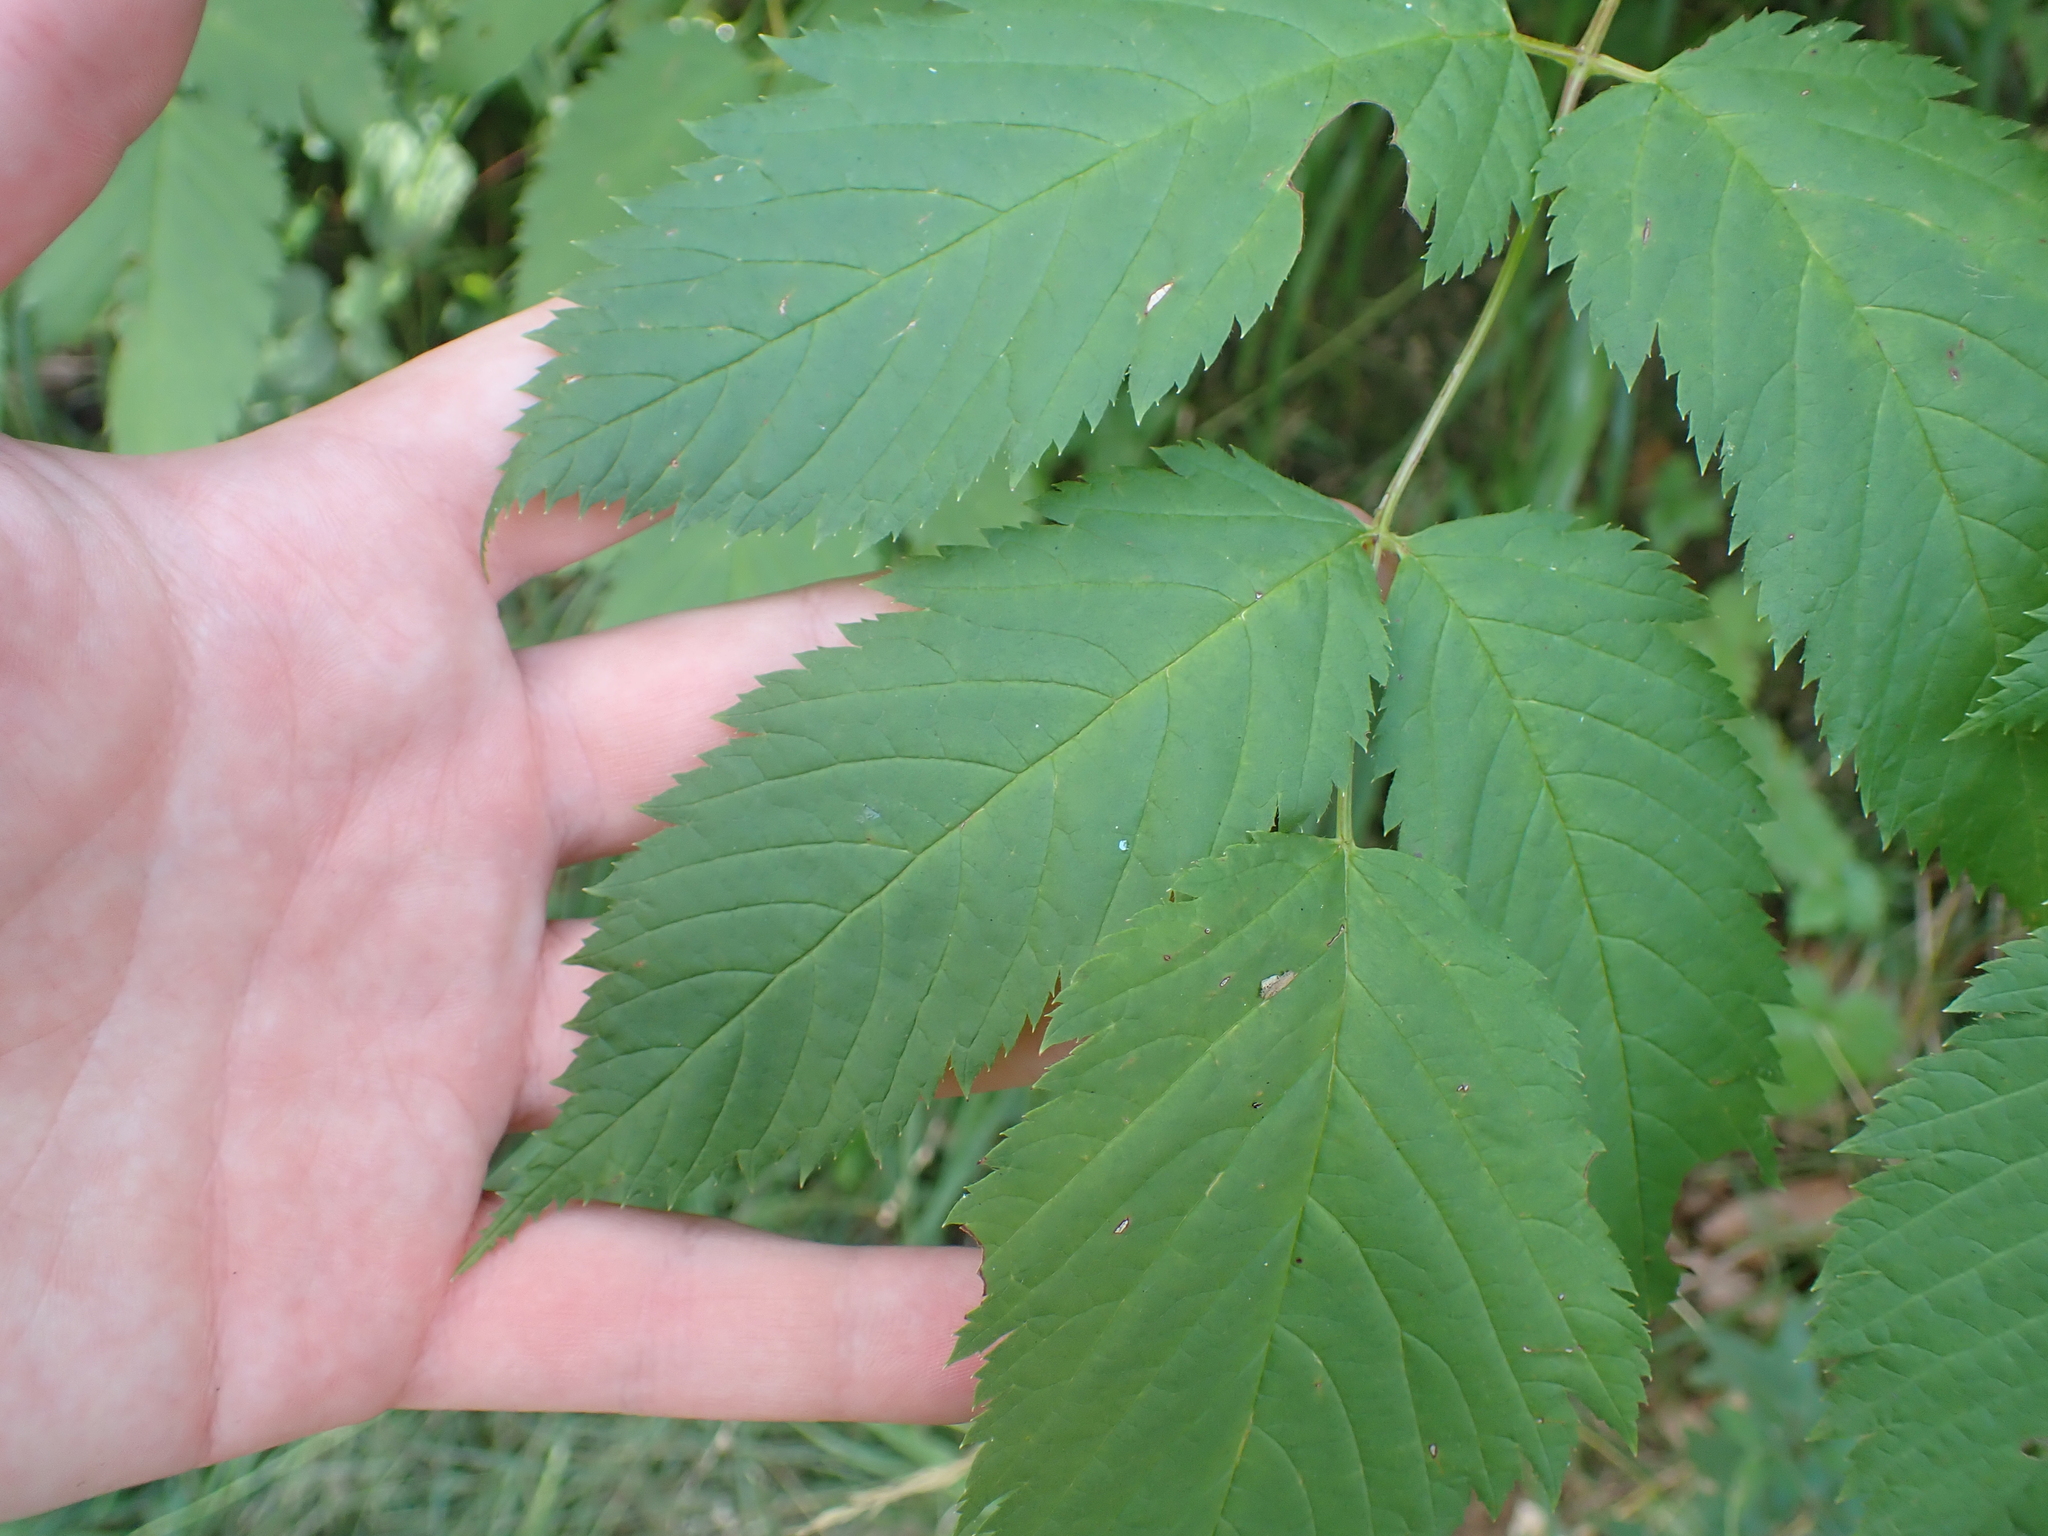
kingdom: Plantae
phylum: Tracheophyta
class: Magnoliopsida
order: Rosales
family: Rosaceae
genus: Aruncus
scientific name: Aruncus dioicus
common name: Buck's-beard
